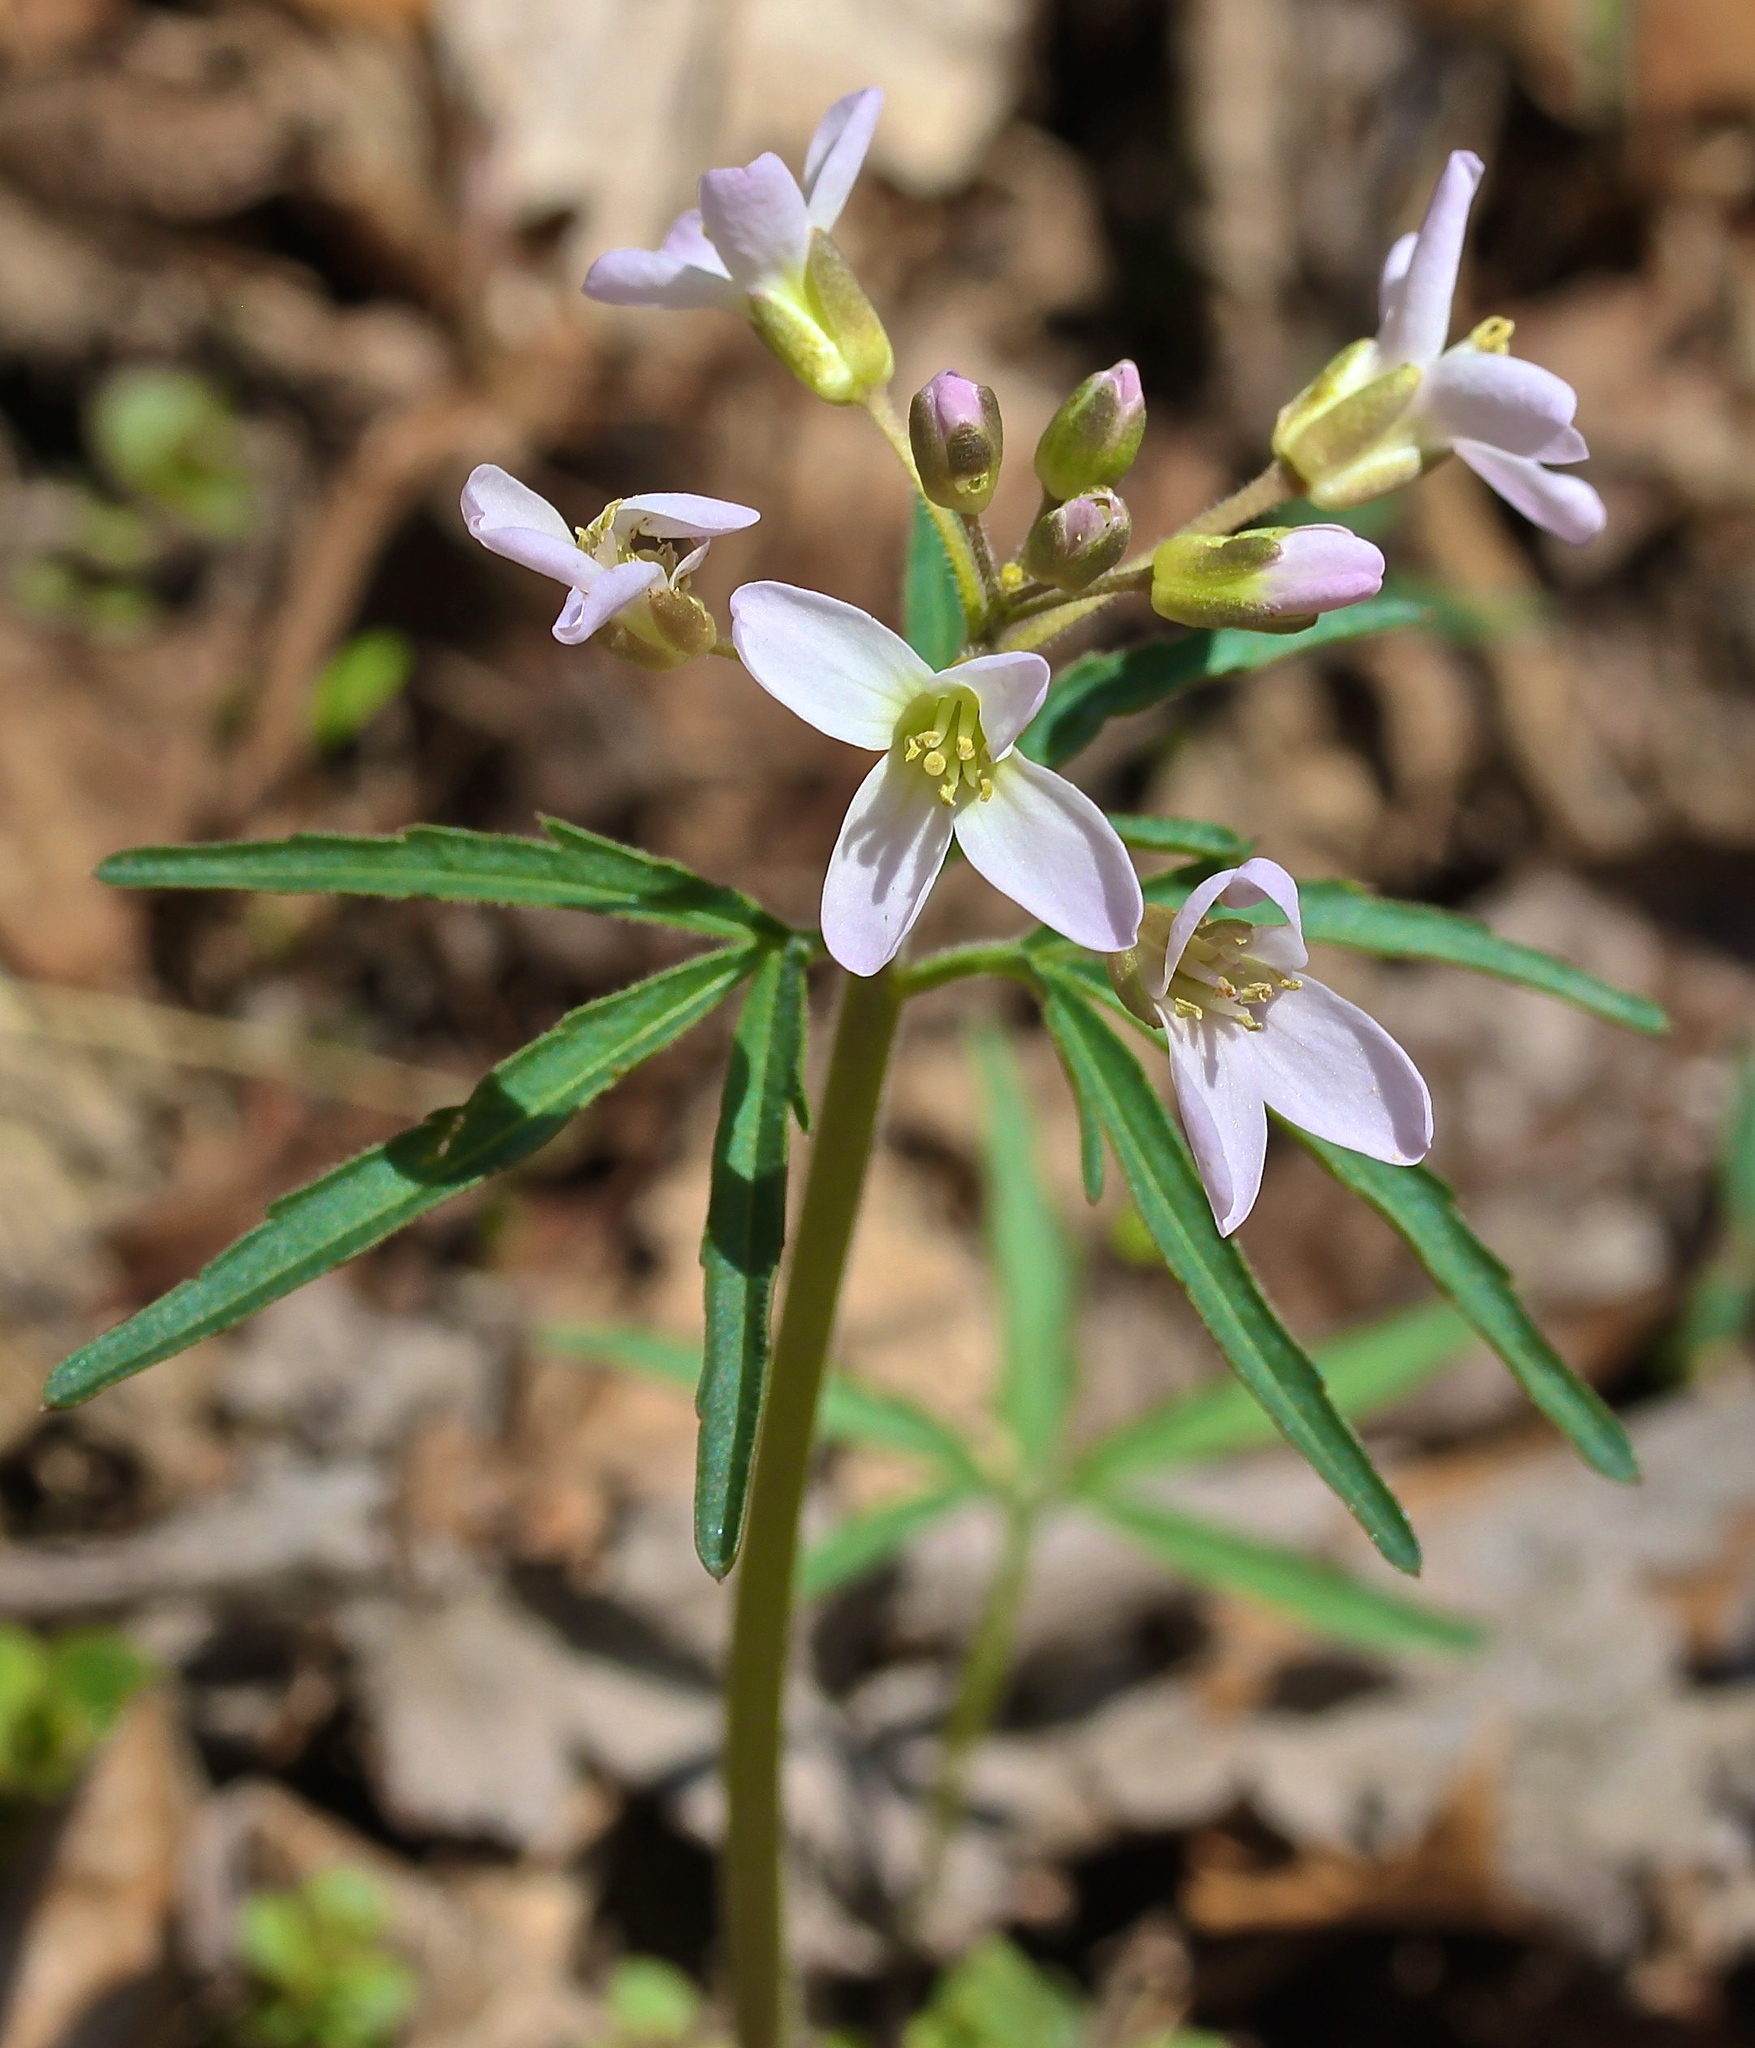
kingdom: Plantae
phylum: Tracheophyta
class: Magnoliopsida
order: Brassicales
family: Brassicaceae
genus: Cardamine
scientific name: Cardamine concatenata
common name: Cut-leaf toothcup
